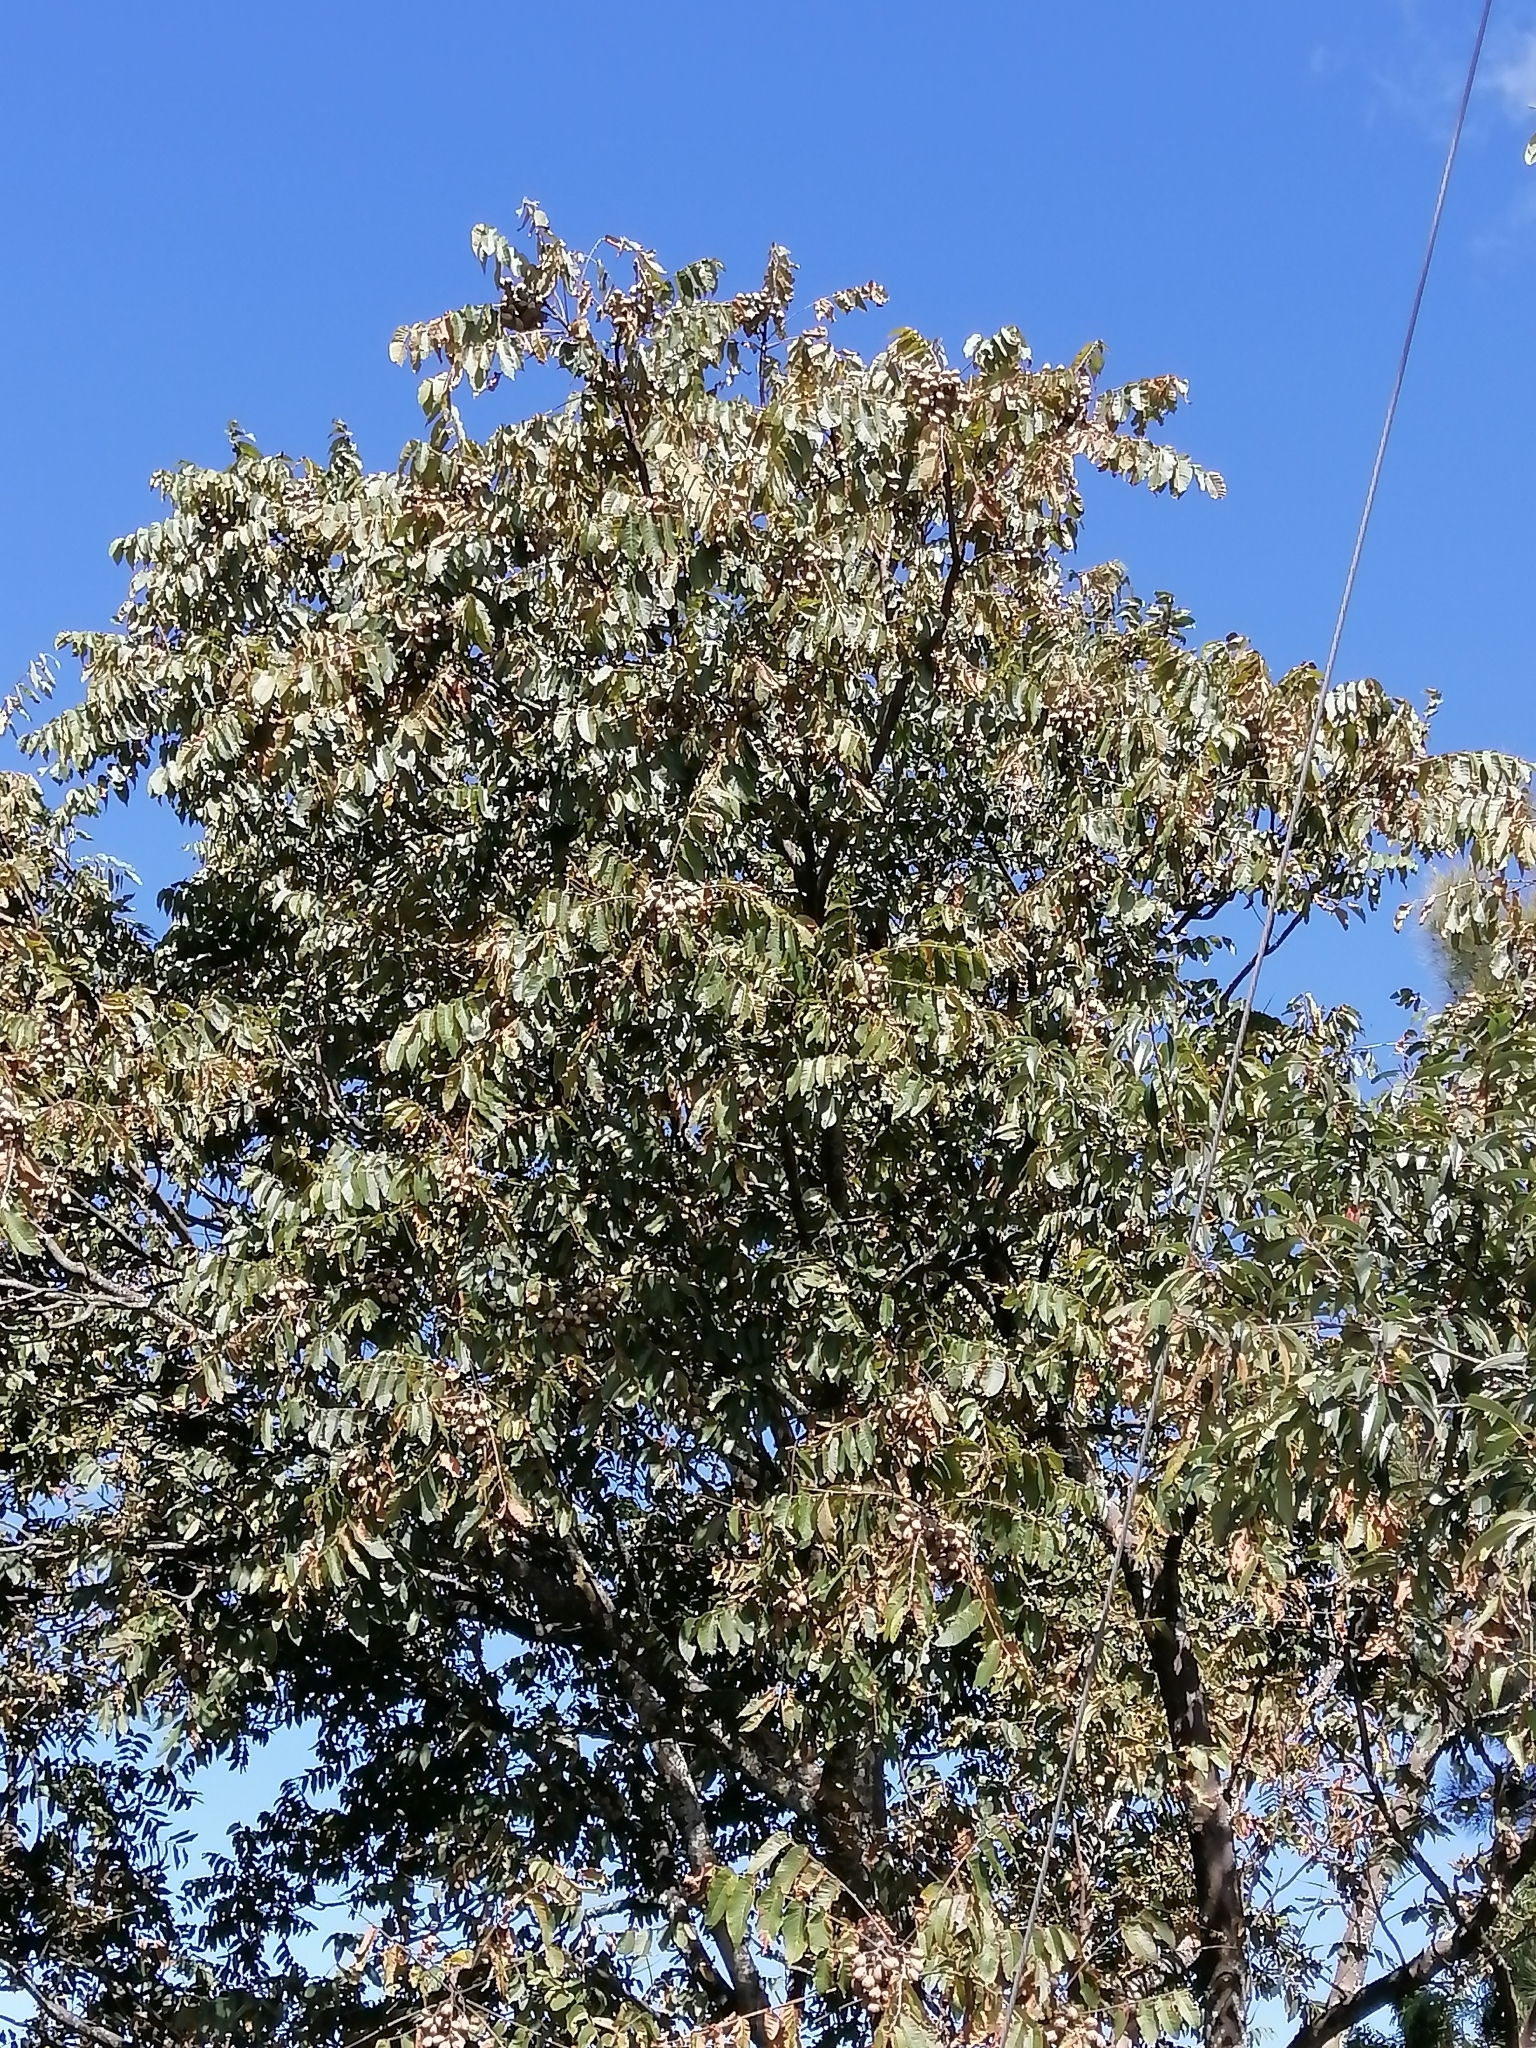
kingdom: Plantae
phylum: Tracheophyta
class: Magnoliopsida
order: Sapindales
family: Meliaceae
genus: Cedrela
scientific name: Cedrela odorata
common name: Red cedar
